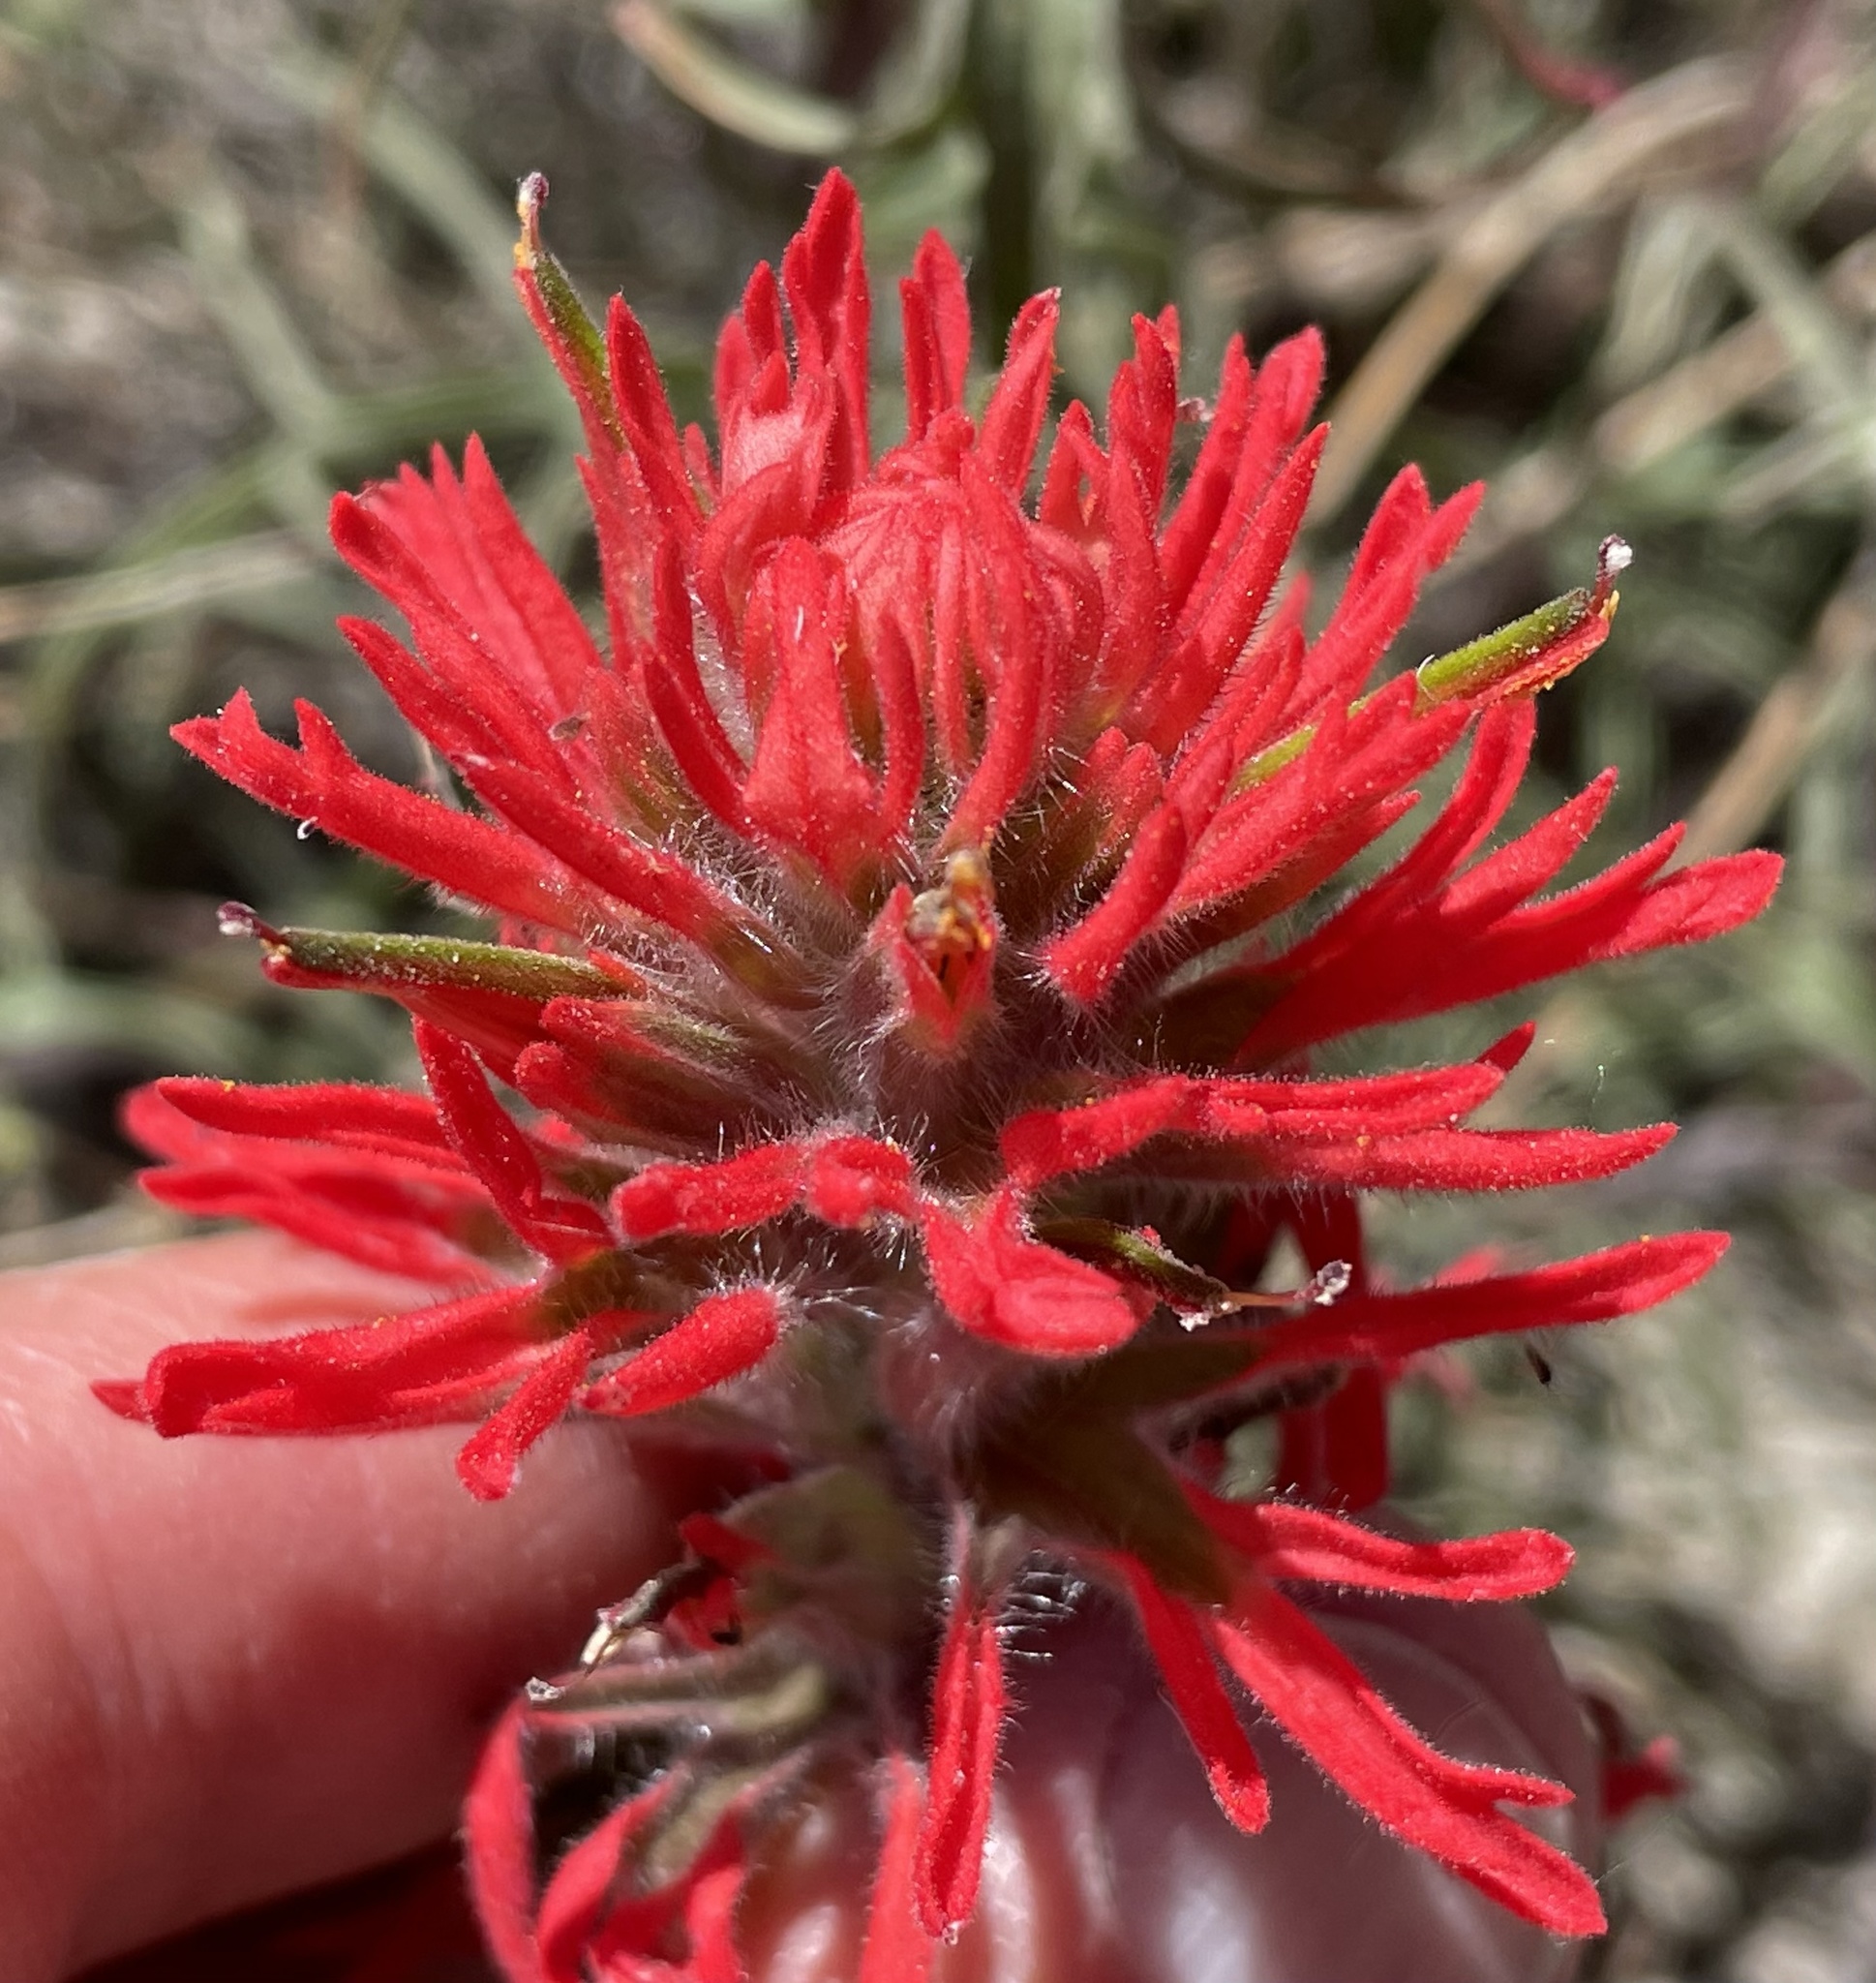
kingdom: Plantae
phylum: Tracheophyta
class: Magnoliopsida
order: Lamiales
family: Orobanchaceae
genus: Castilleja
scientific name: Castilleja chromosa
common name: Desert paintbrush
